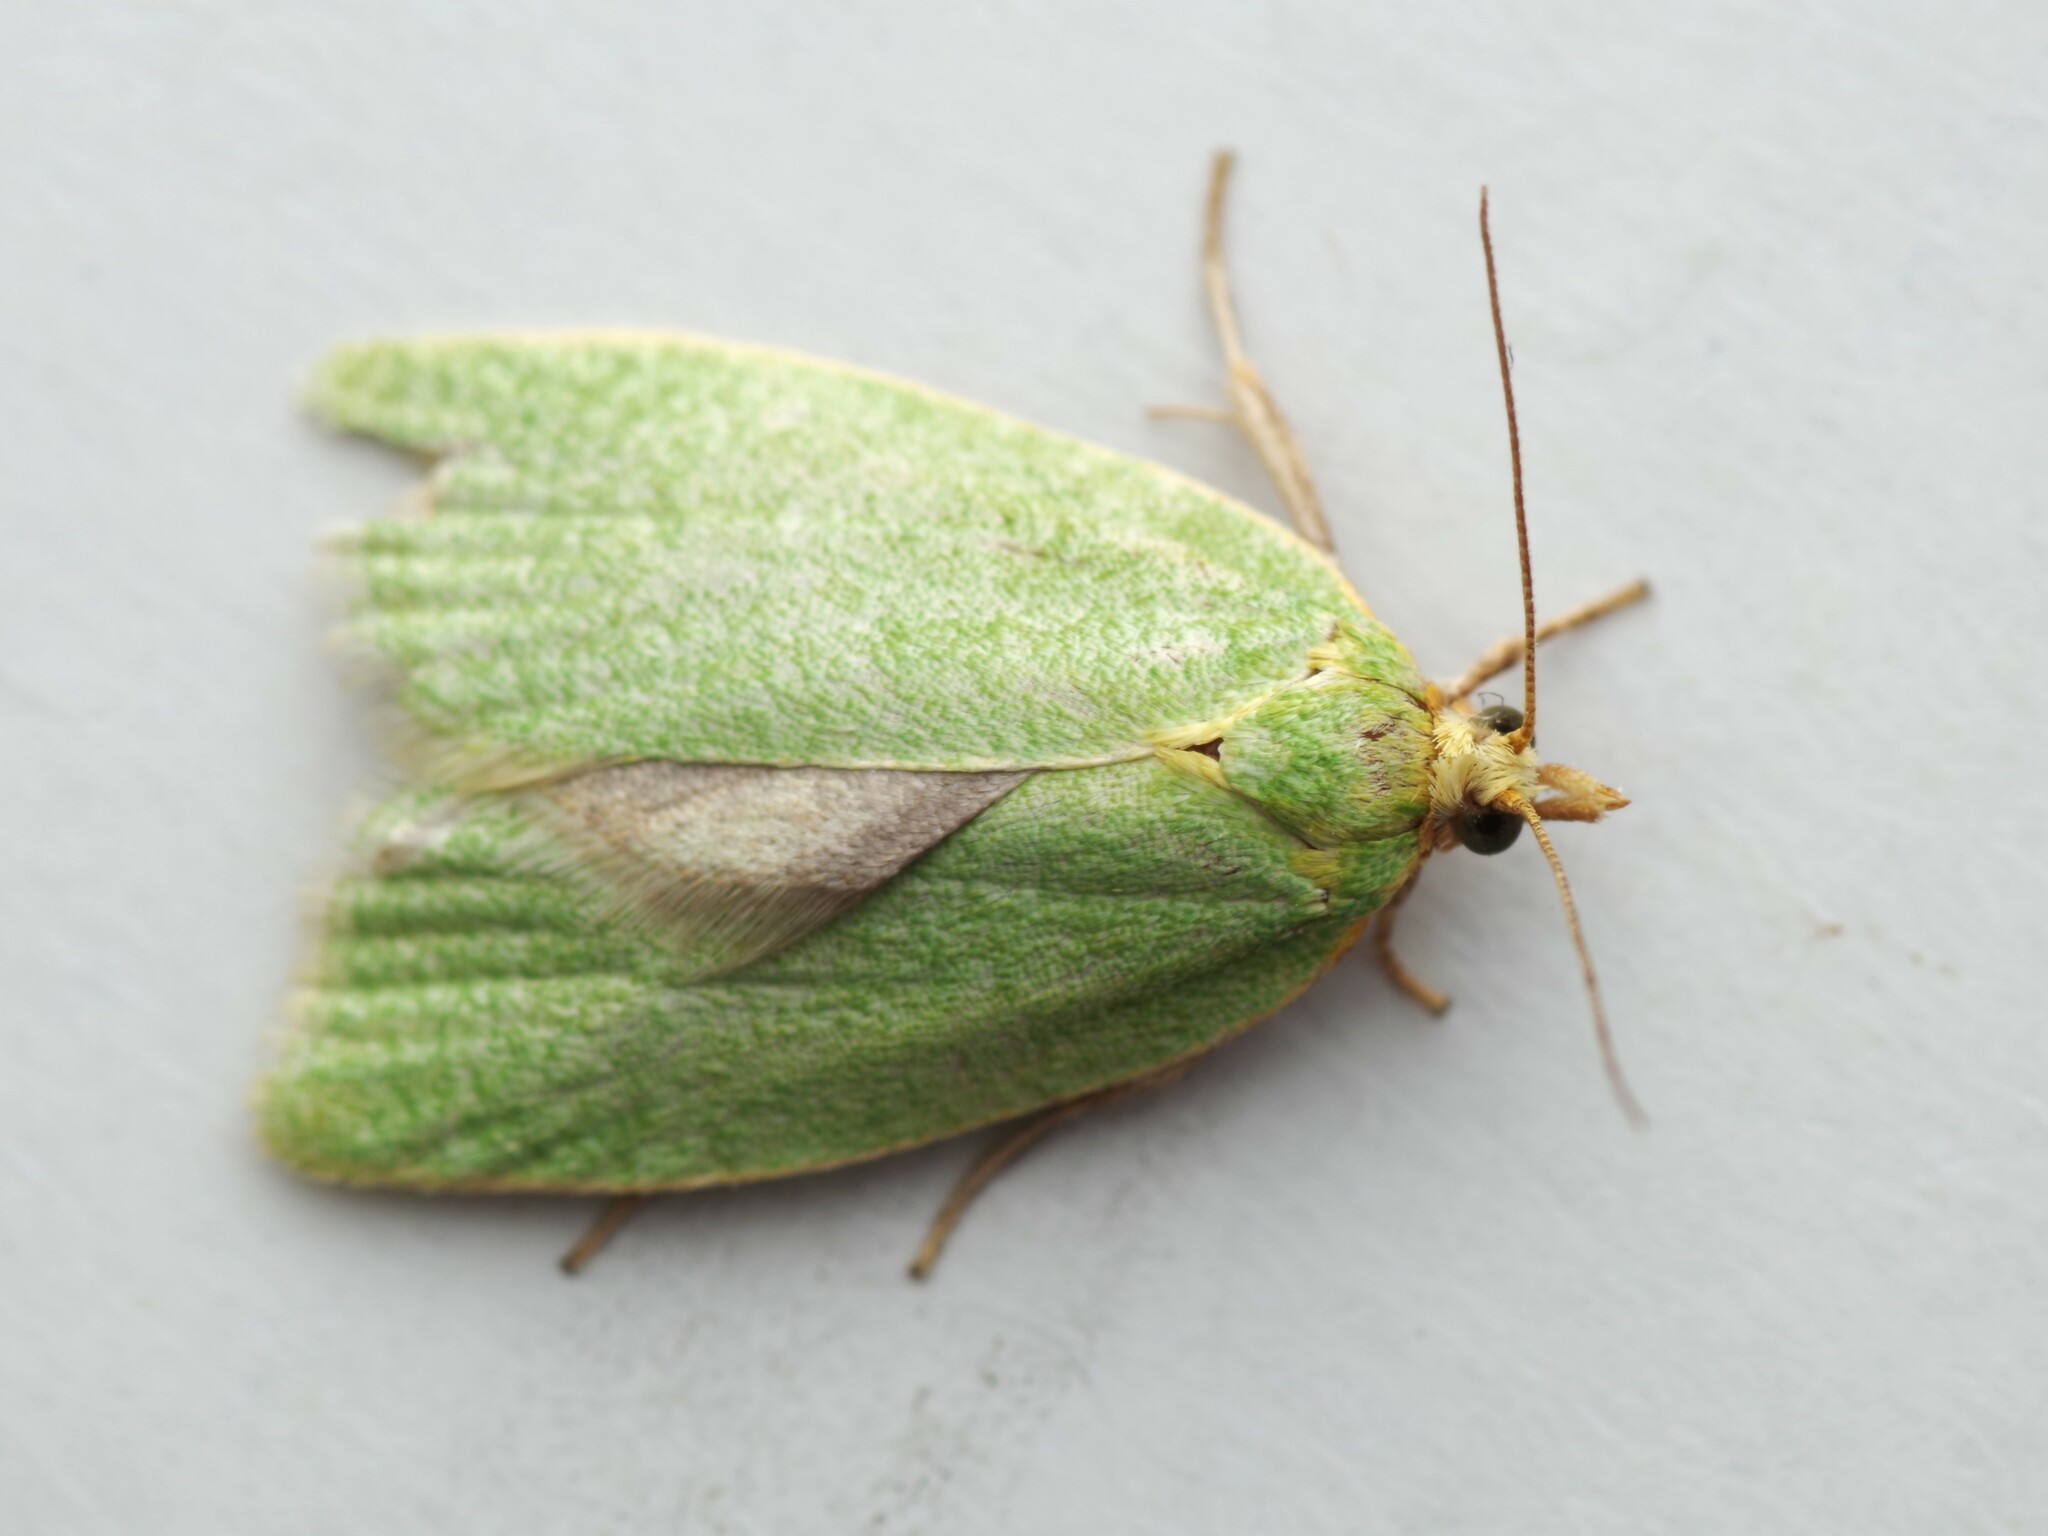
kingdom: Animalia
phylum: Arthropoda
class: Insecta
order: Lepidoptera
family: Tortricidae
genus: Tortrix
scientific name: Tortrix viridana
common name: Green oak tortrix
